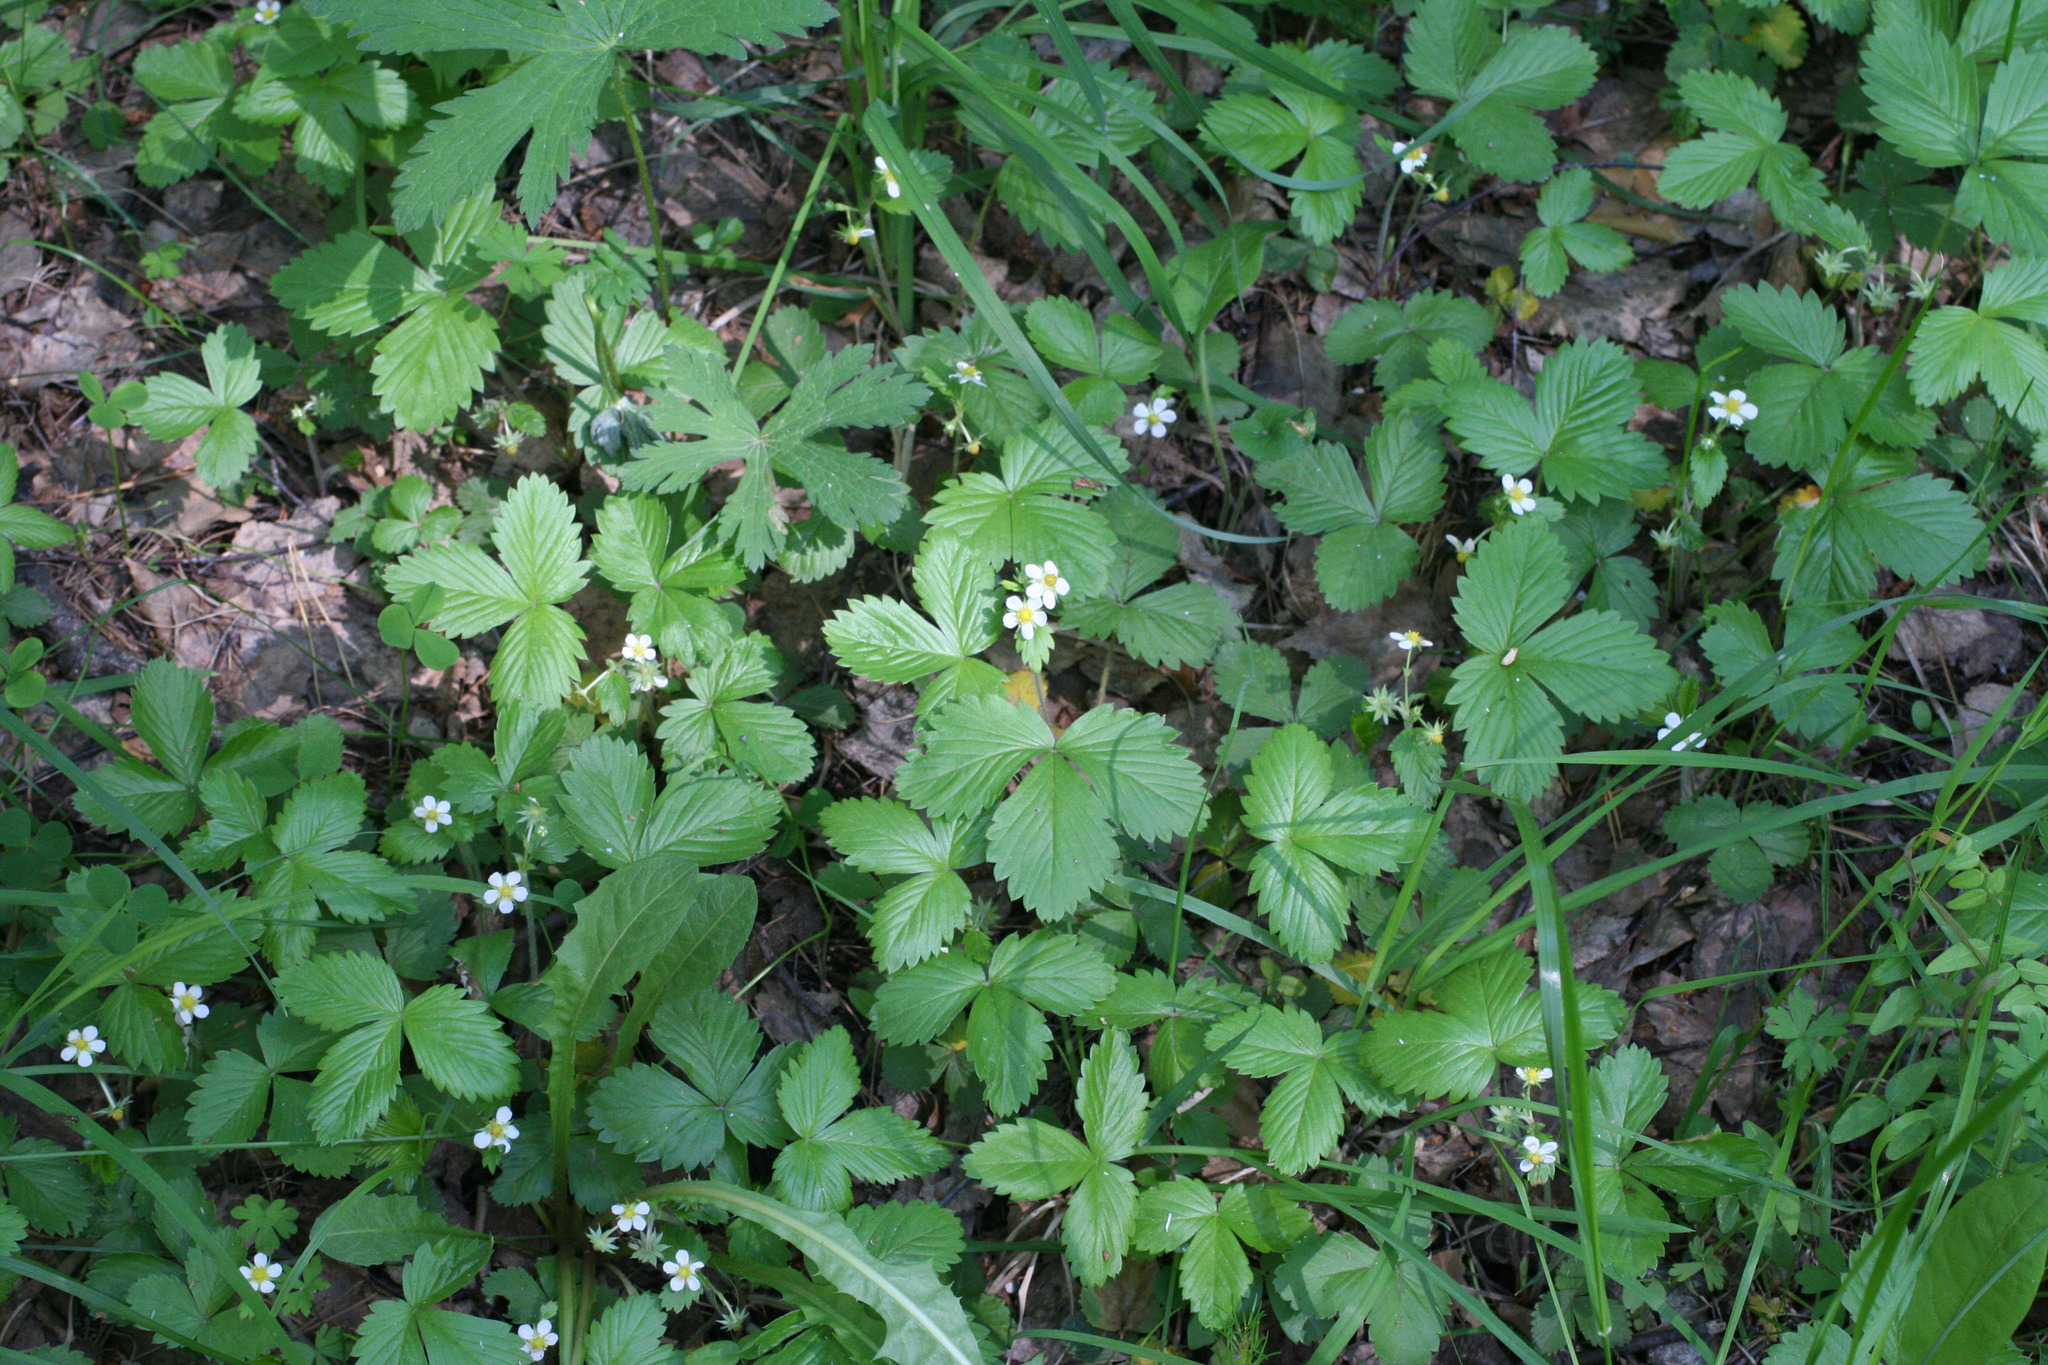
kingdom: Plantae
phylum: Tracheophyta
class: Magnoliopsida
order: Rosales
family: Rosaceae
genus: Fragaria
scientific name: Fragaria vesca
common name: Wild strawberry
